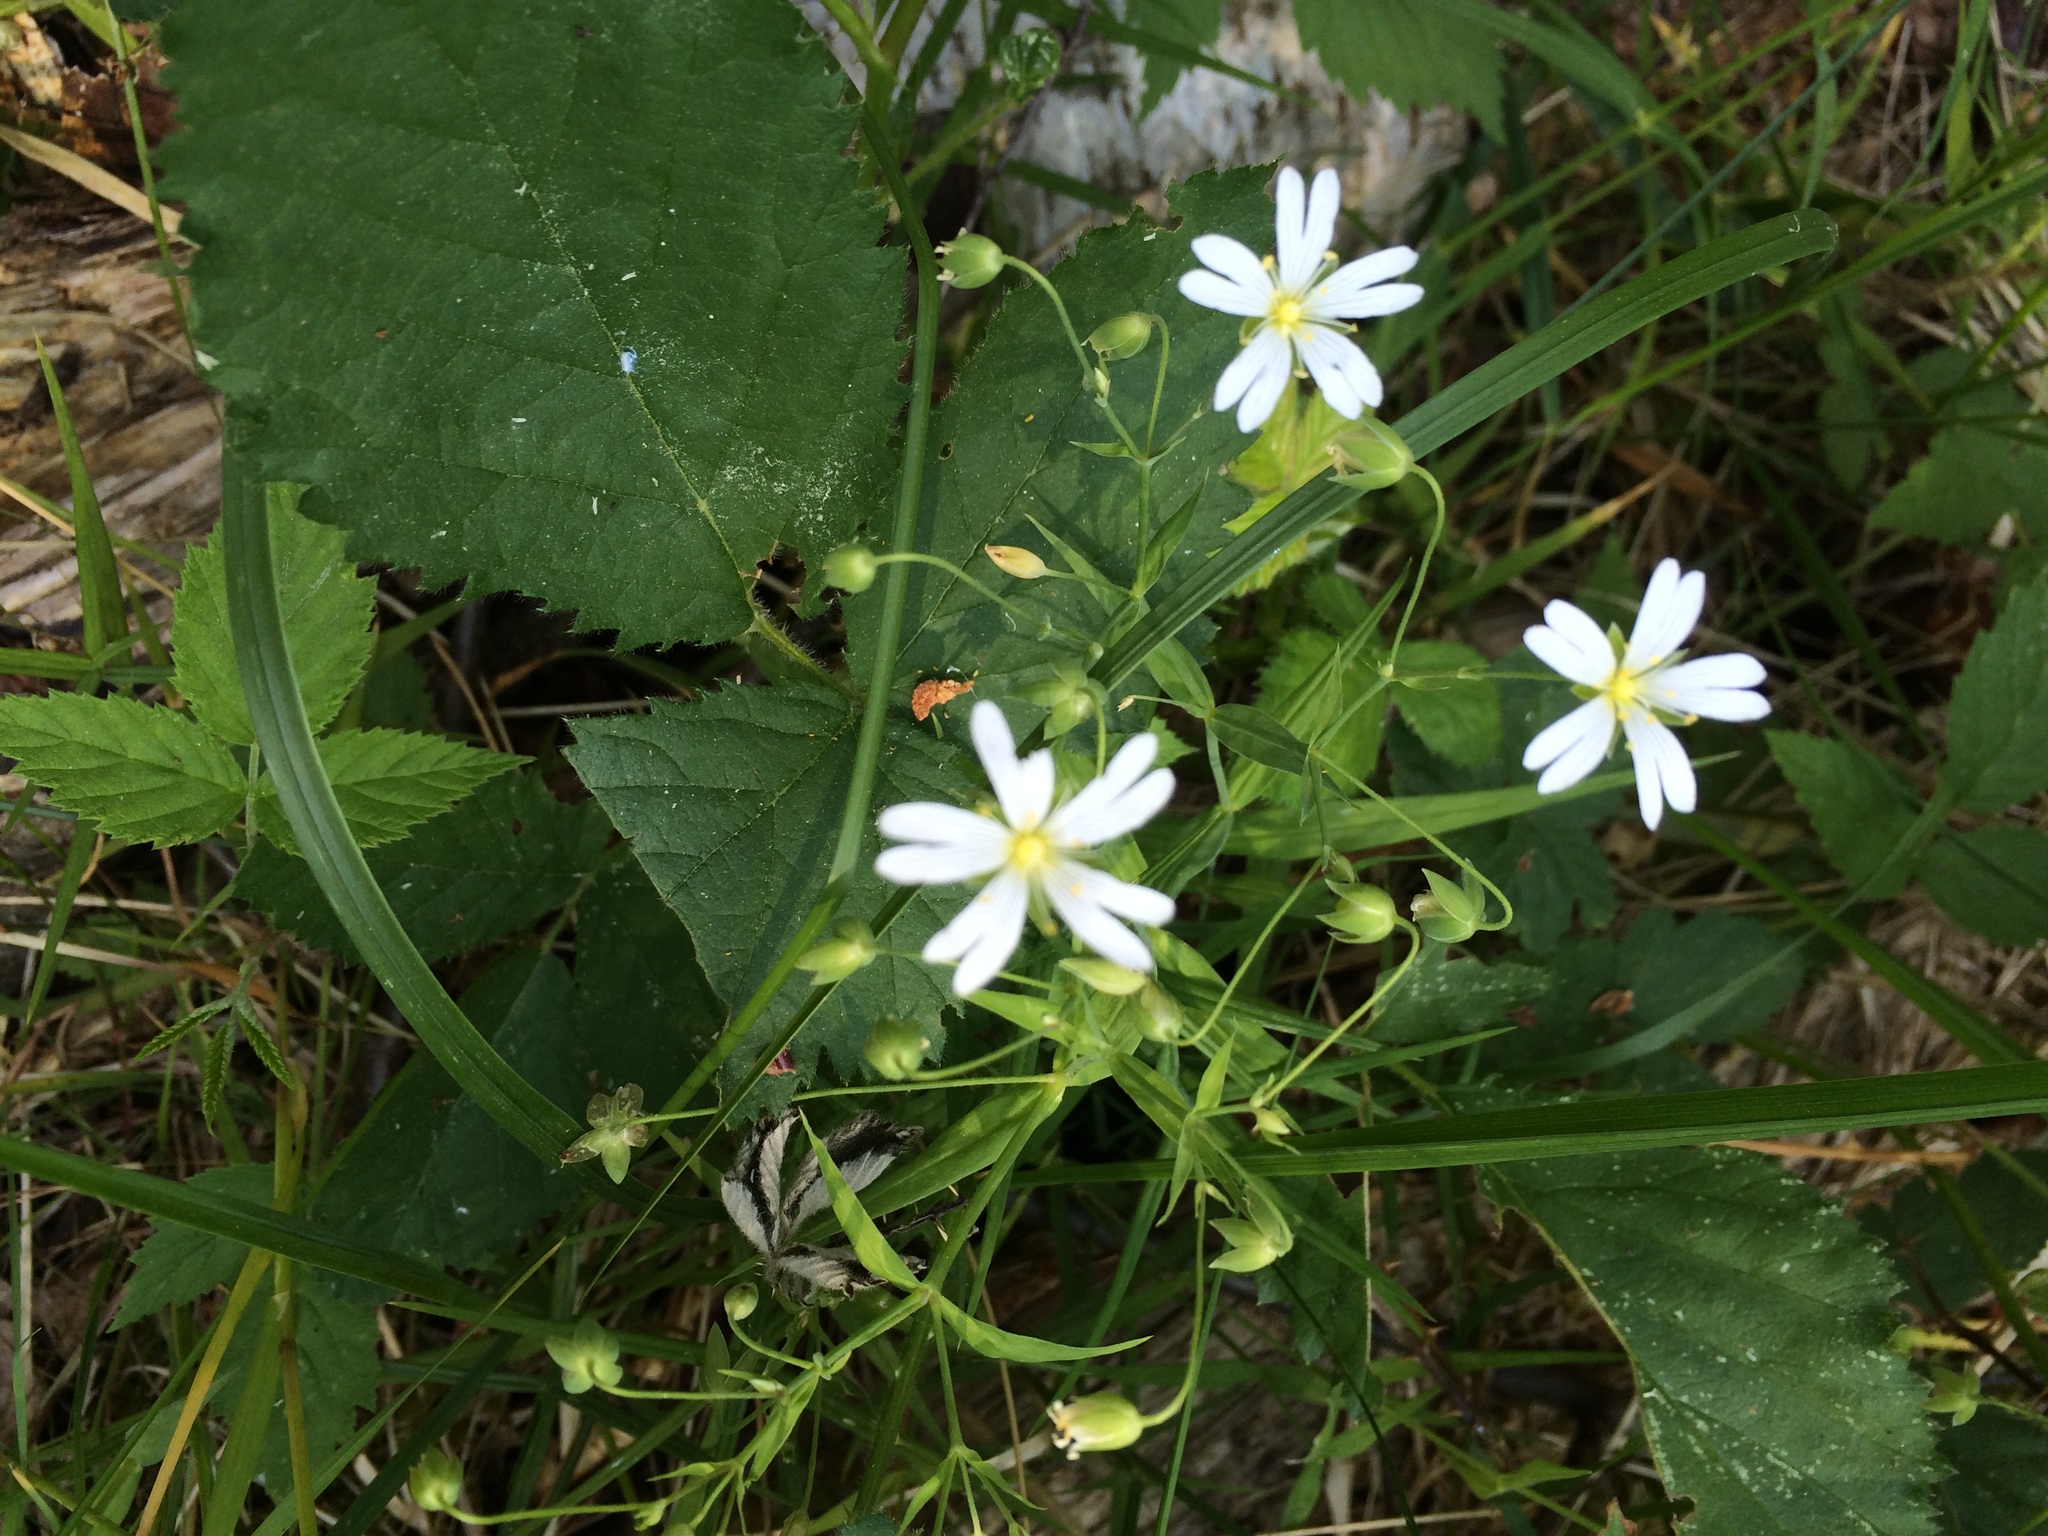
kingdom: Plantae
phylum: Tracheophyta
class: Magnoliopsida
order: Caryophyllales
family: Caryophyllaceae
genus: Rabelera
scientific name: Rabelera holostea
